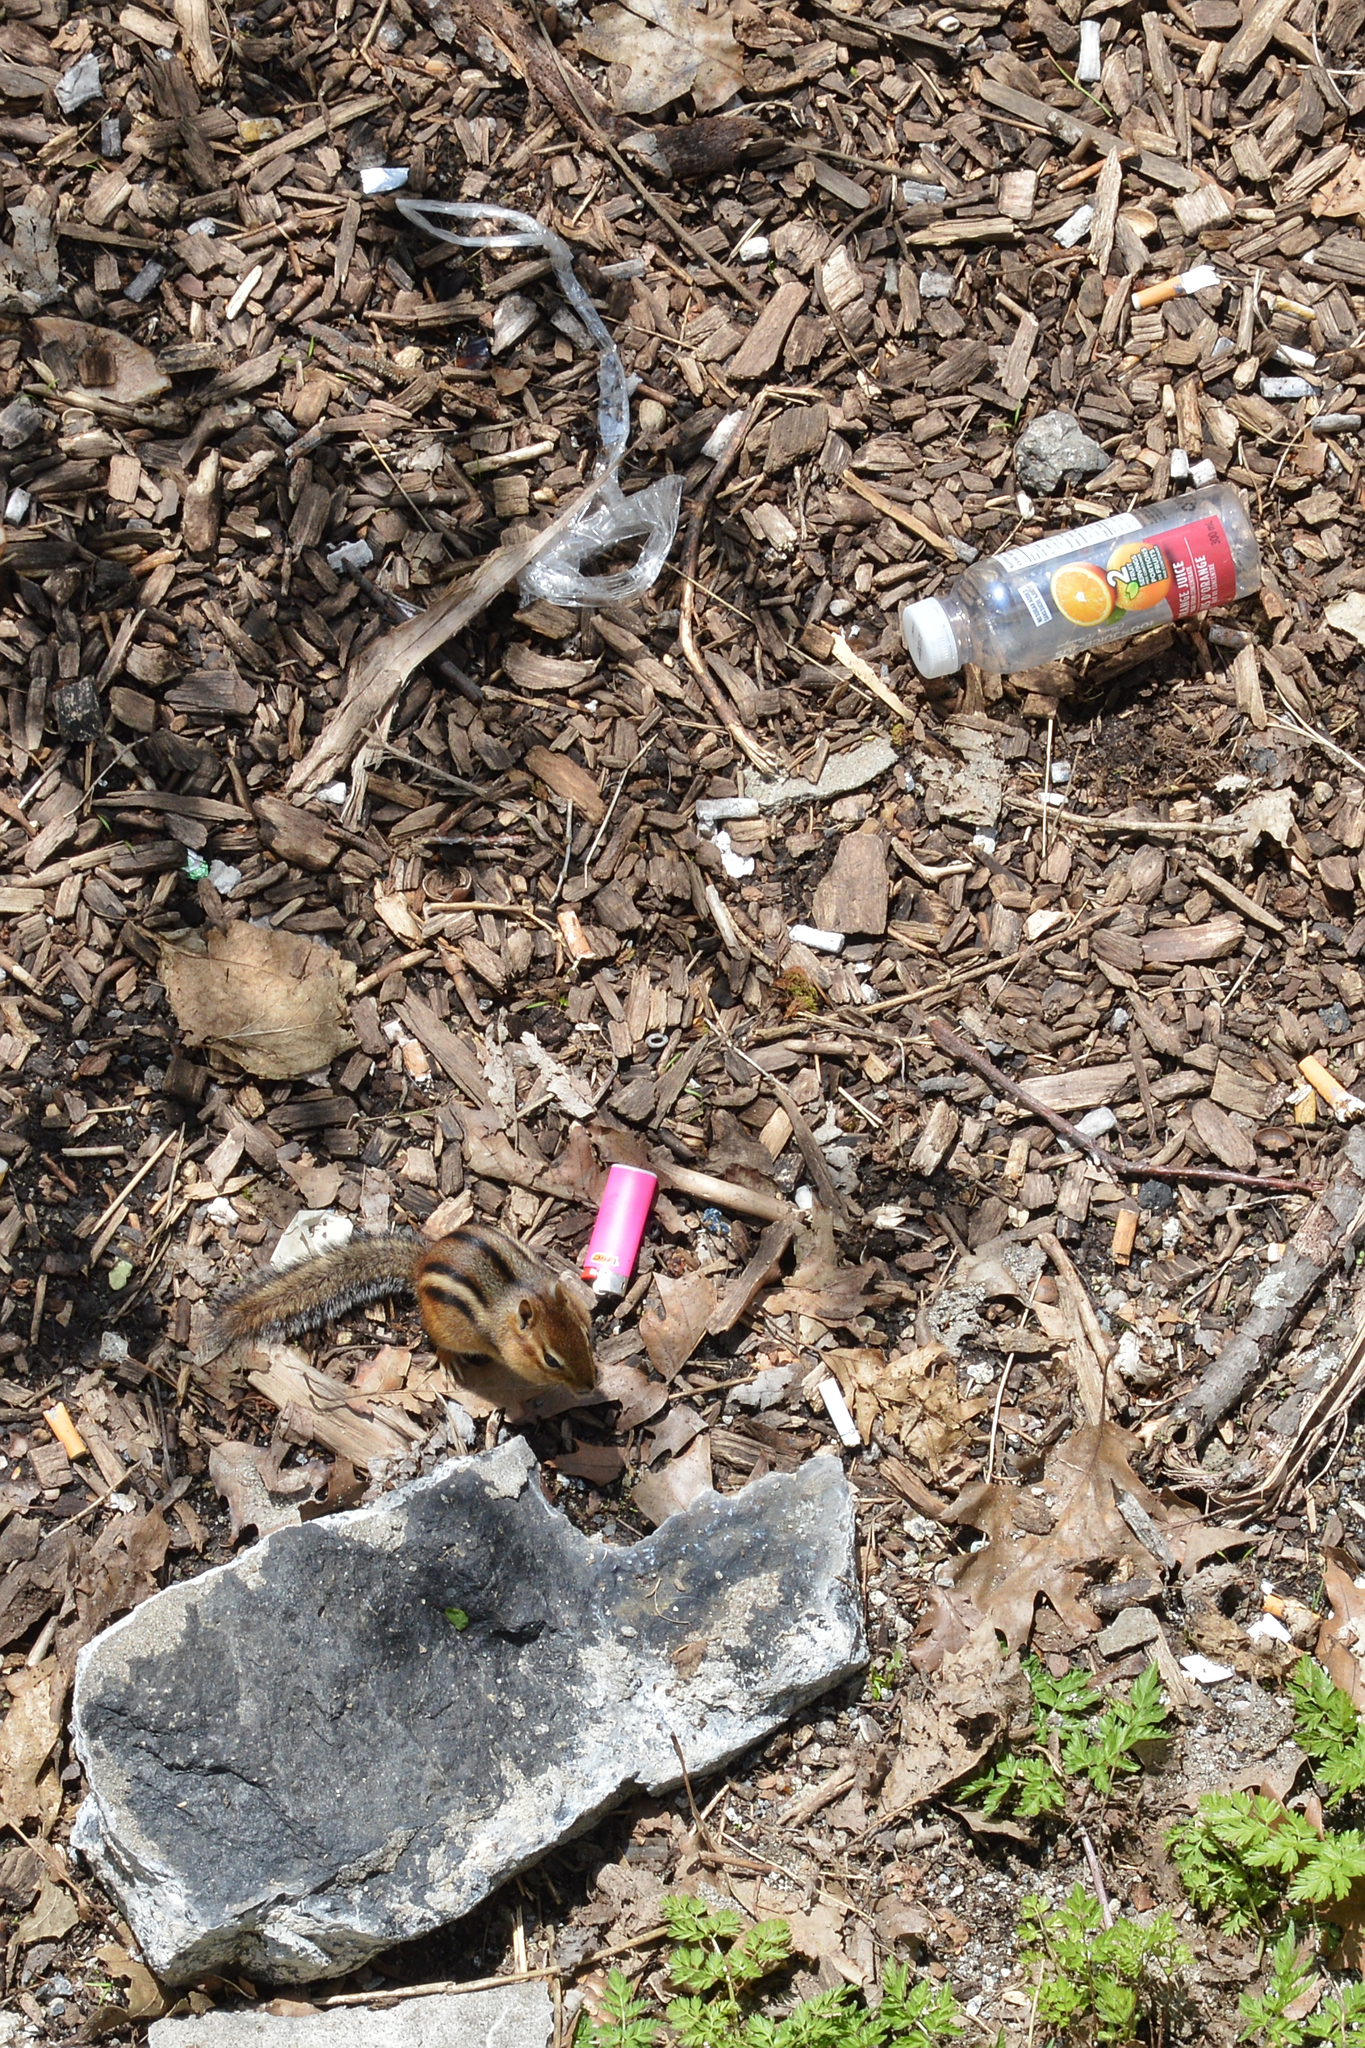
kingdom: Animalia
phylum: Chordata
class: Mammalia
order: Rodentia
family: Sciuridae
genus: Tamias
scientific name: Tamias striatus
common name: Eastern chipmunk
